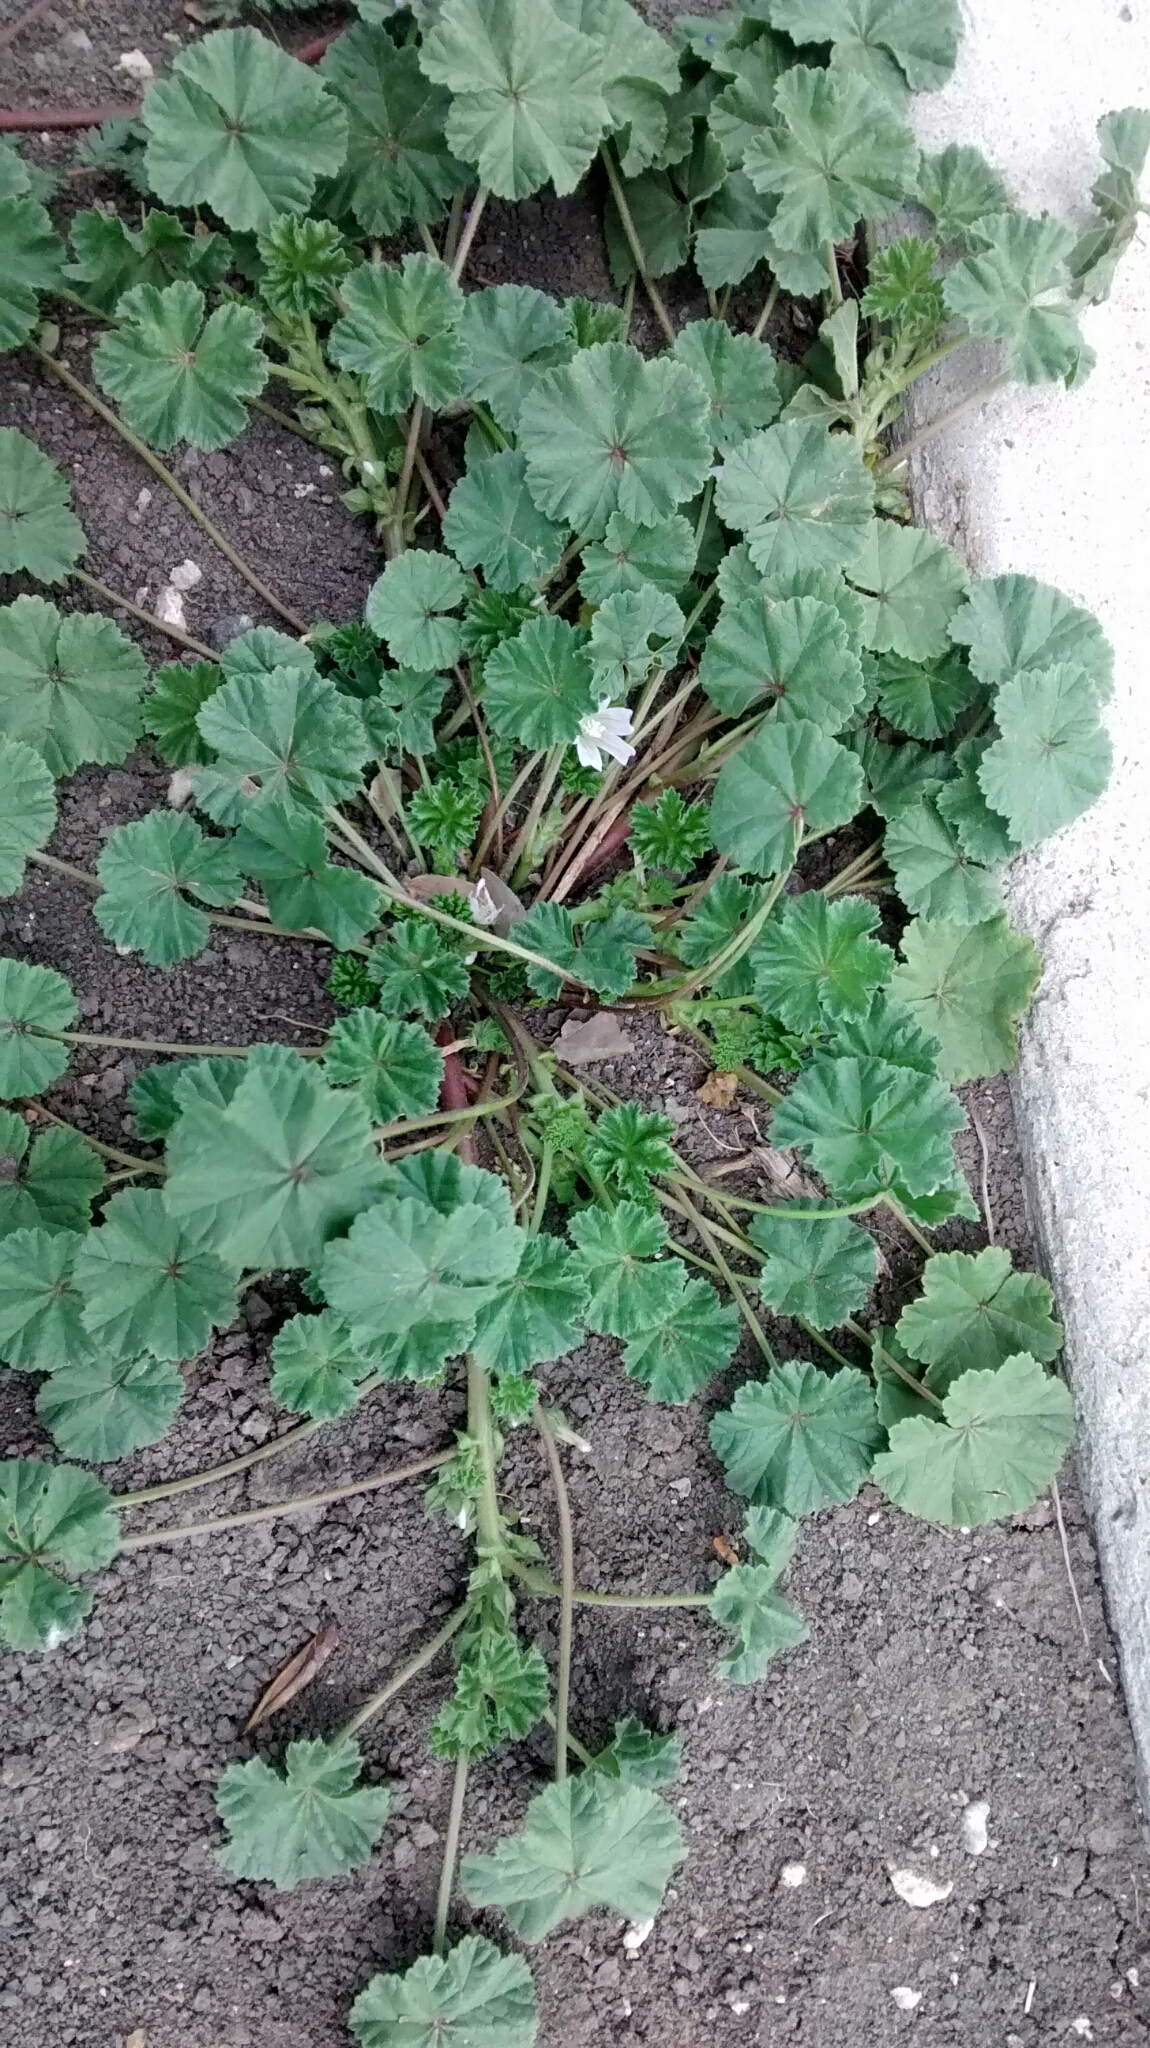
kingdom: Plantae
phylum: Tracheophyta
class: Magnoliopsida
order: Malvales
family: Malvaceae
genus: Malva
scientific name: Malva neglecta
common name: Common mallow
